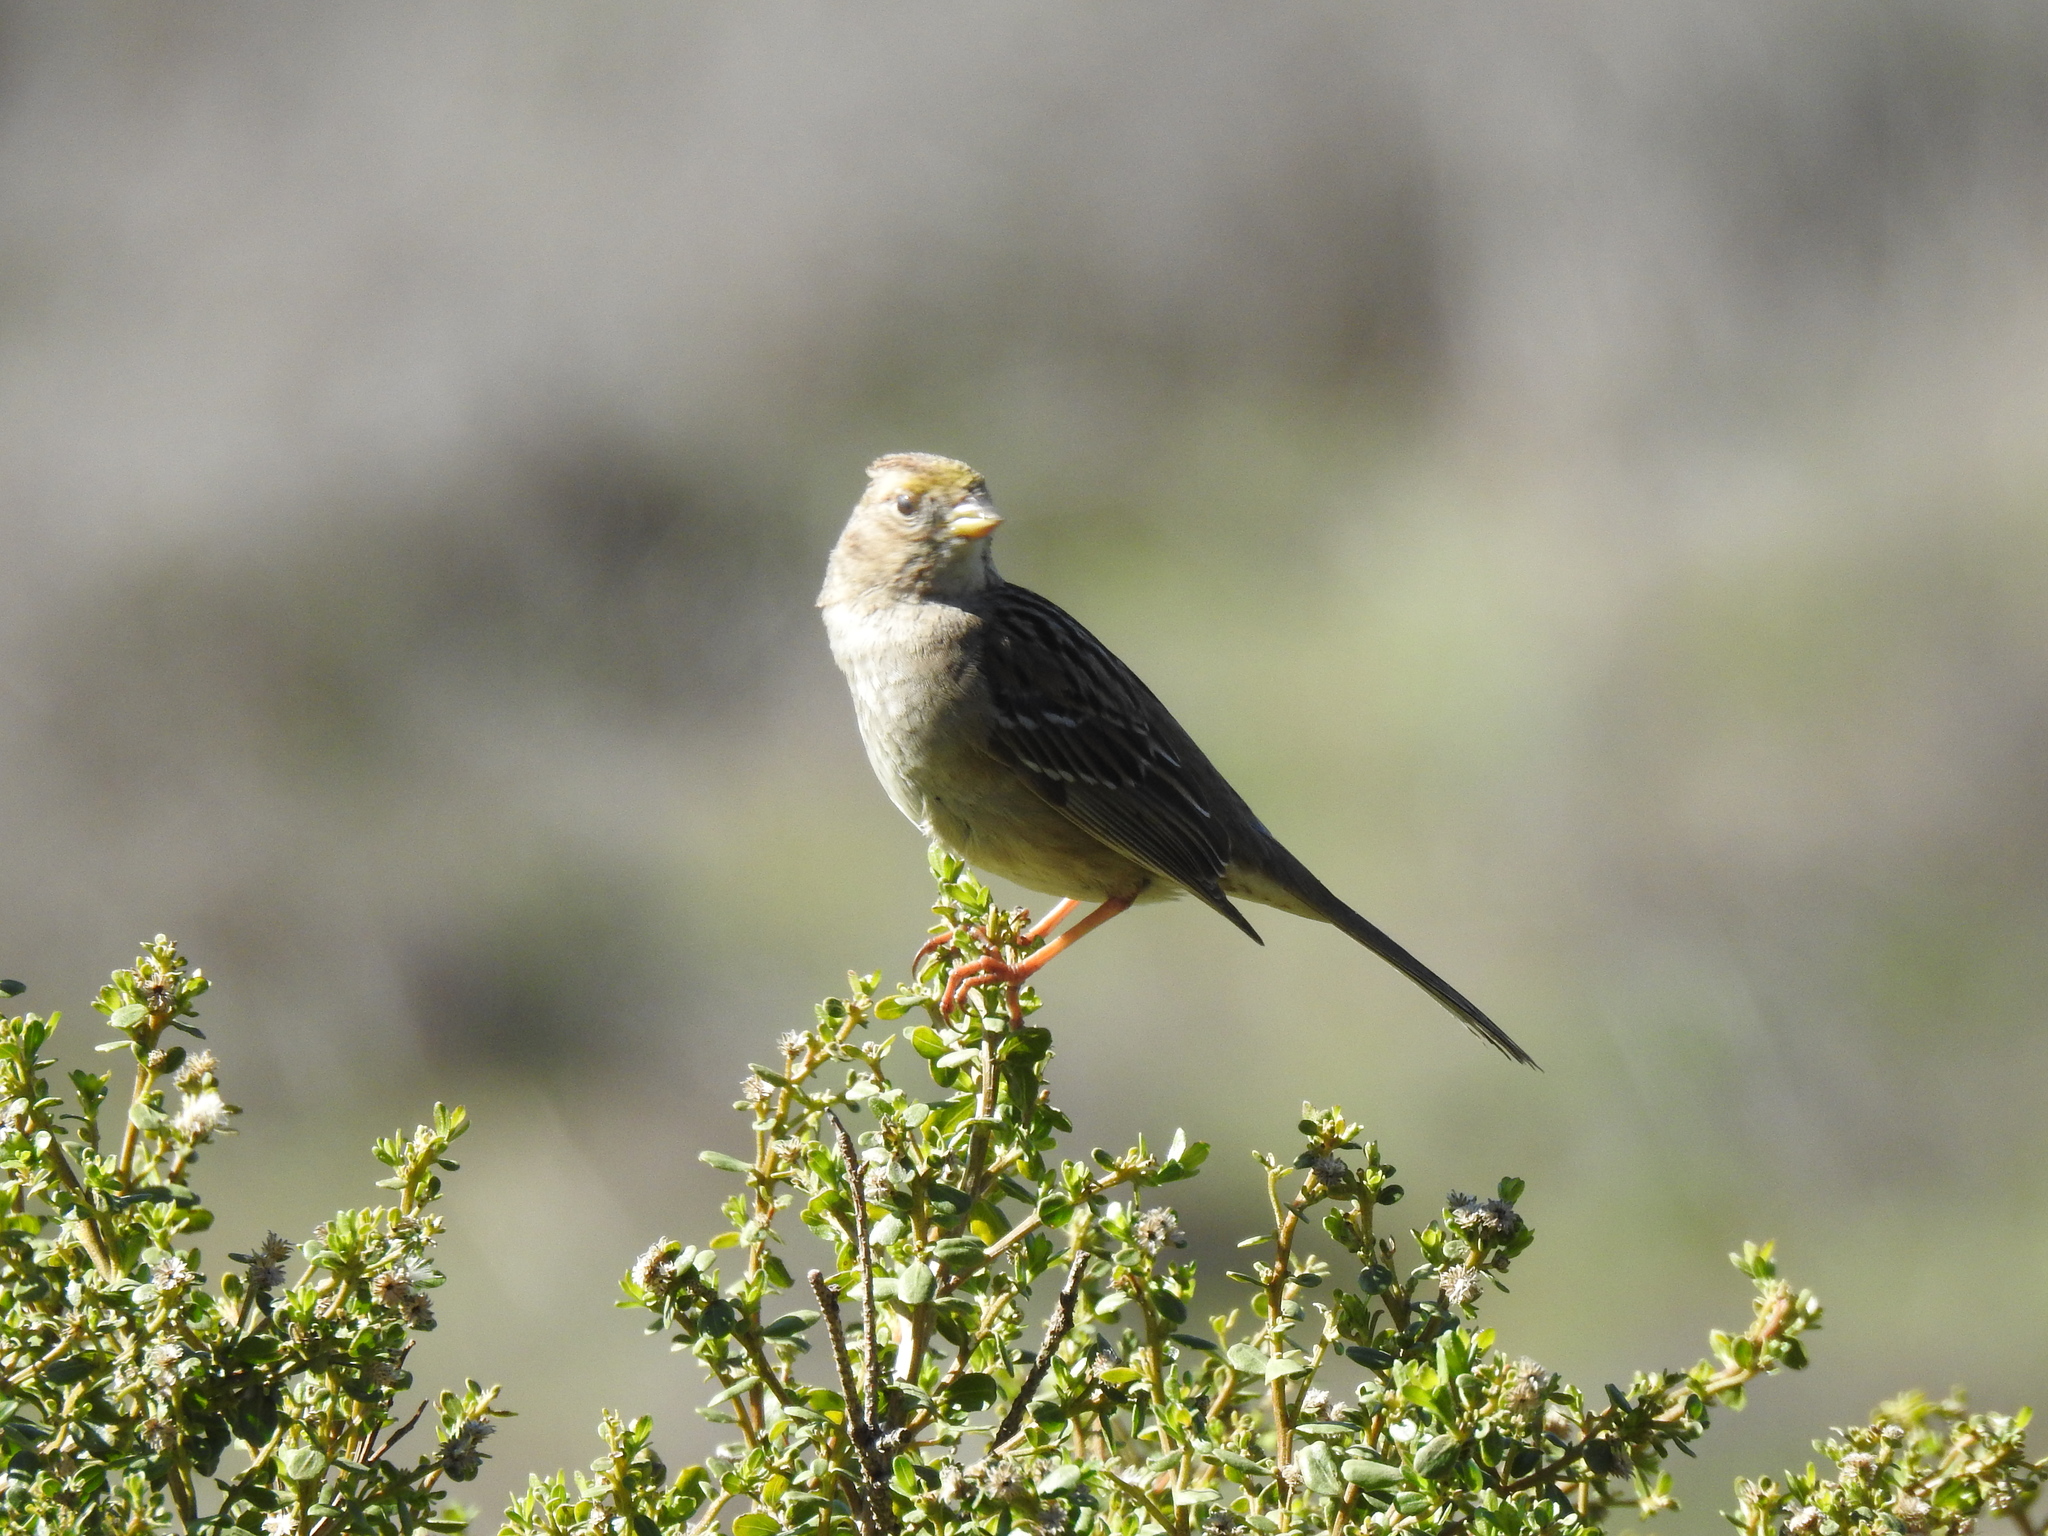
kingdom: Animalia
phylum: Chordata
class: Aves
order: Passeriformes
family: Passerellidae
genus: Zonotrichia
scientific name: Zonotrichia atricapilla
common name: Golden-crowned sparrow
